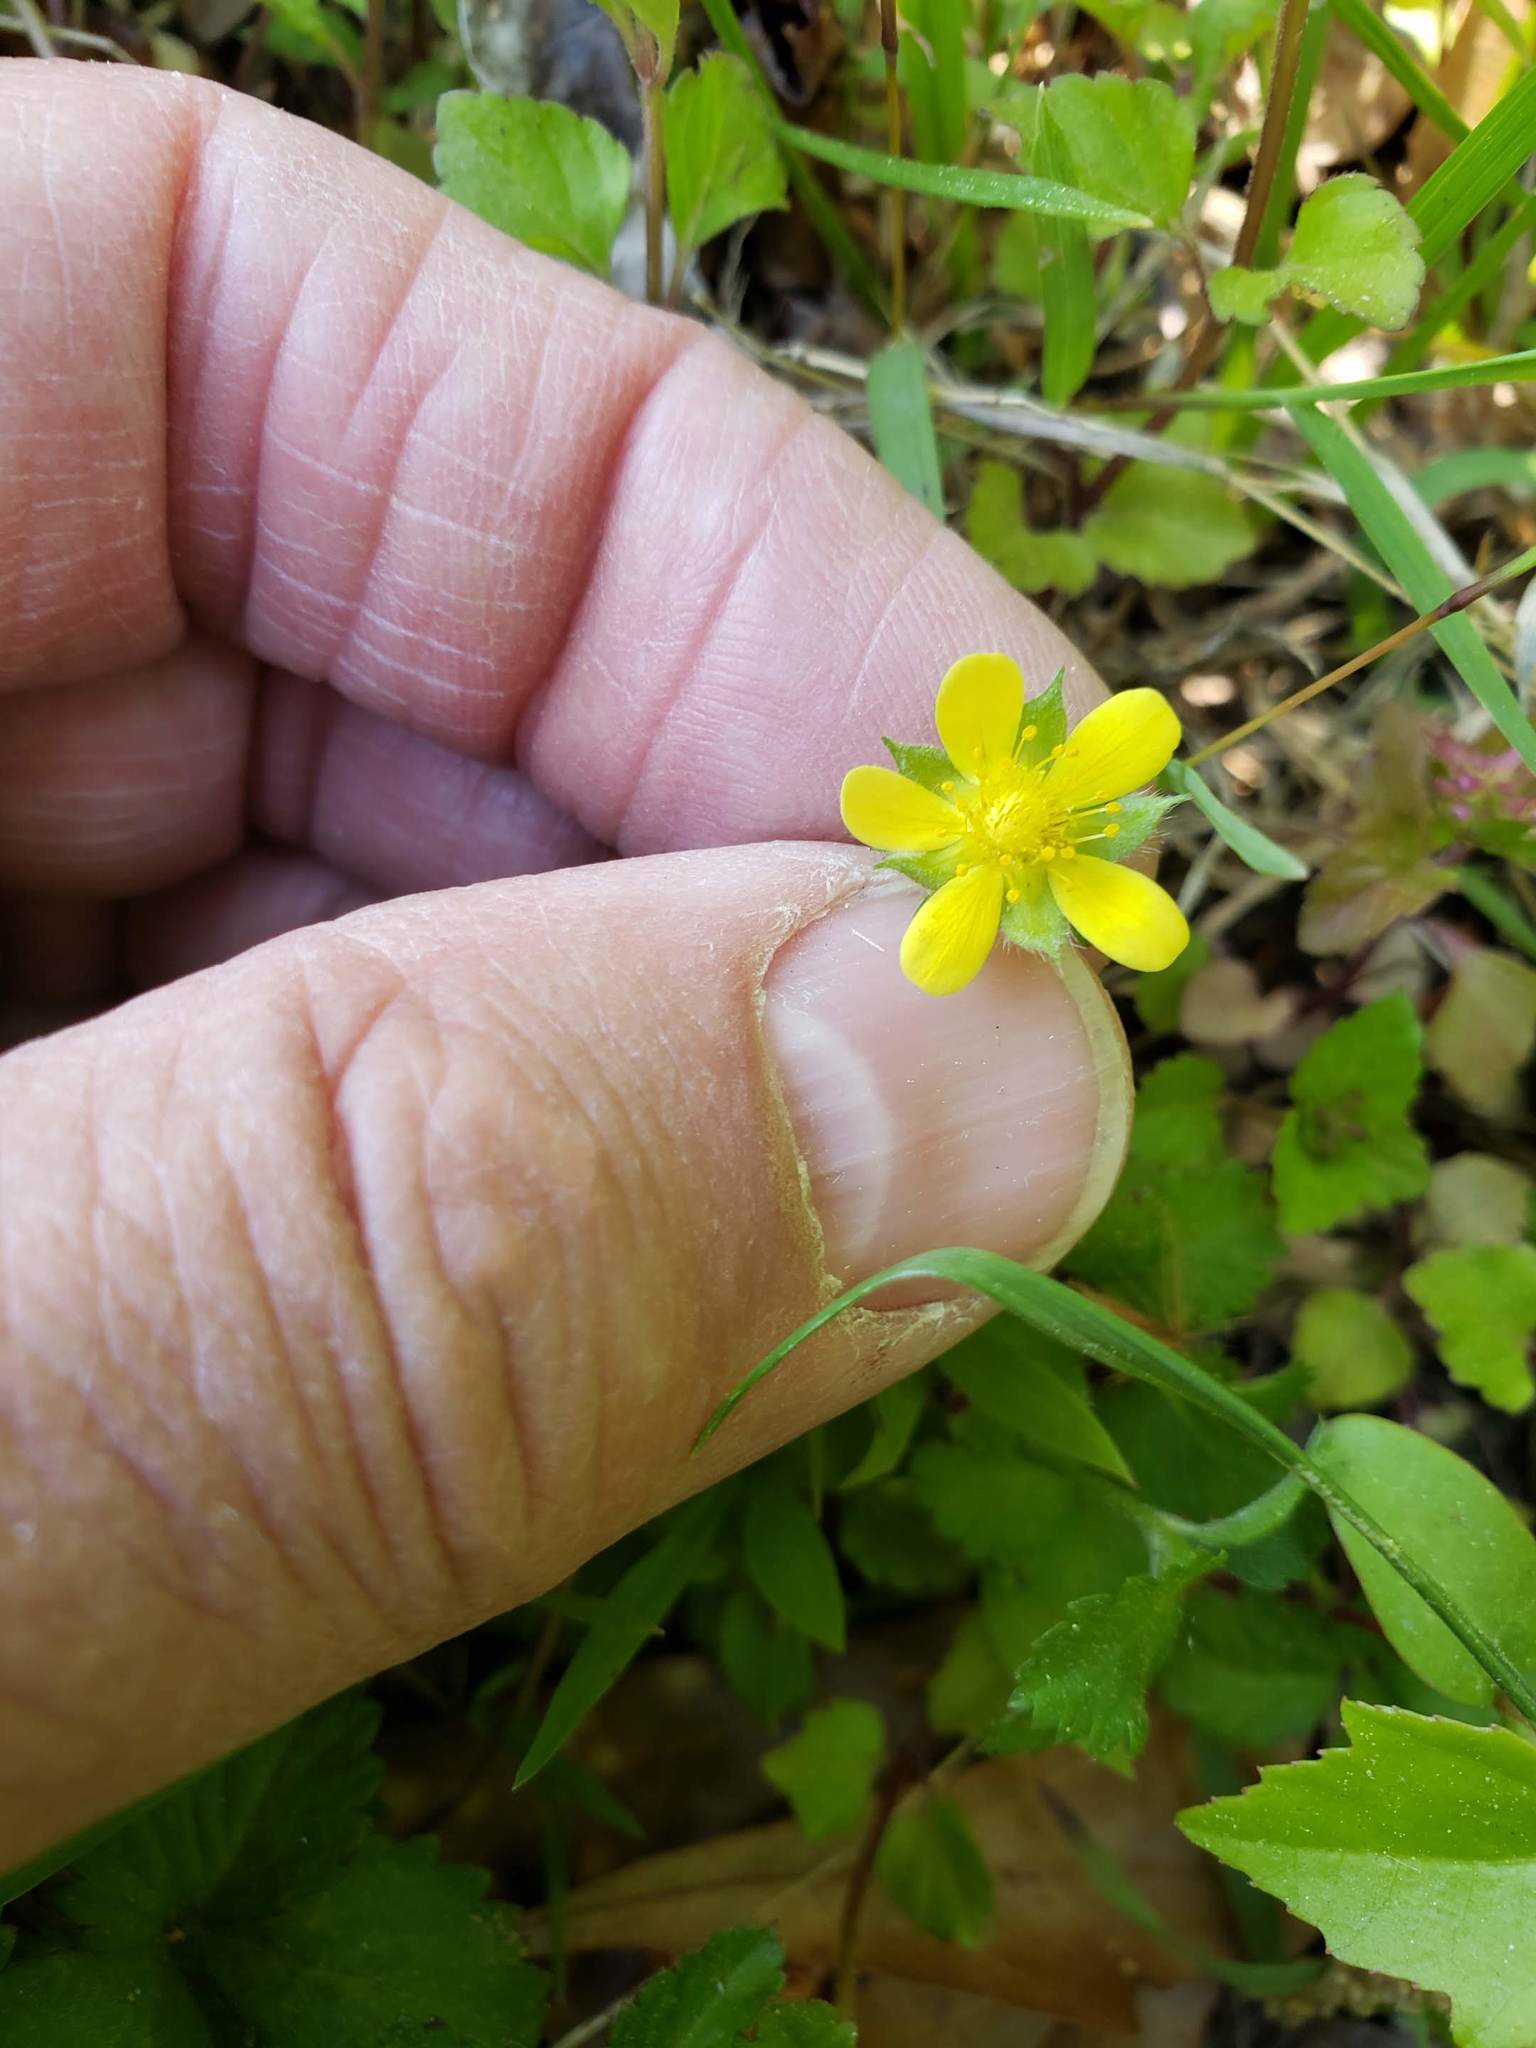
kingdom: Plantae
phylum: Tracheophyta
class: Magnoliopsida
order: Rosales
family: Rosaceae
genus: Potentilla
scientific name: Potentilla indica
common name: Yellow-flowered strawberry
